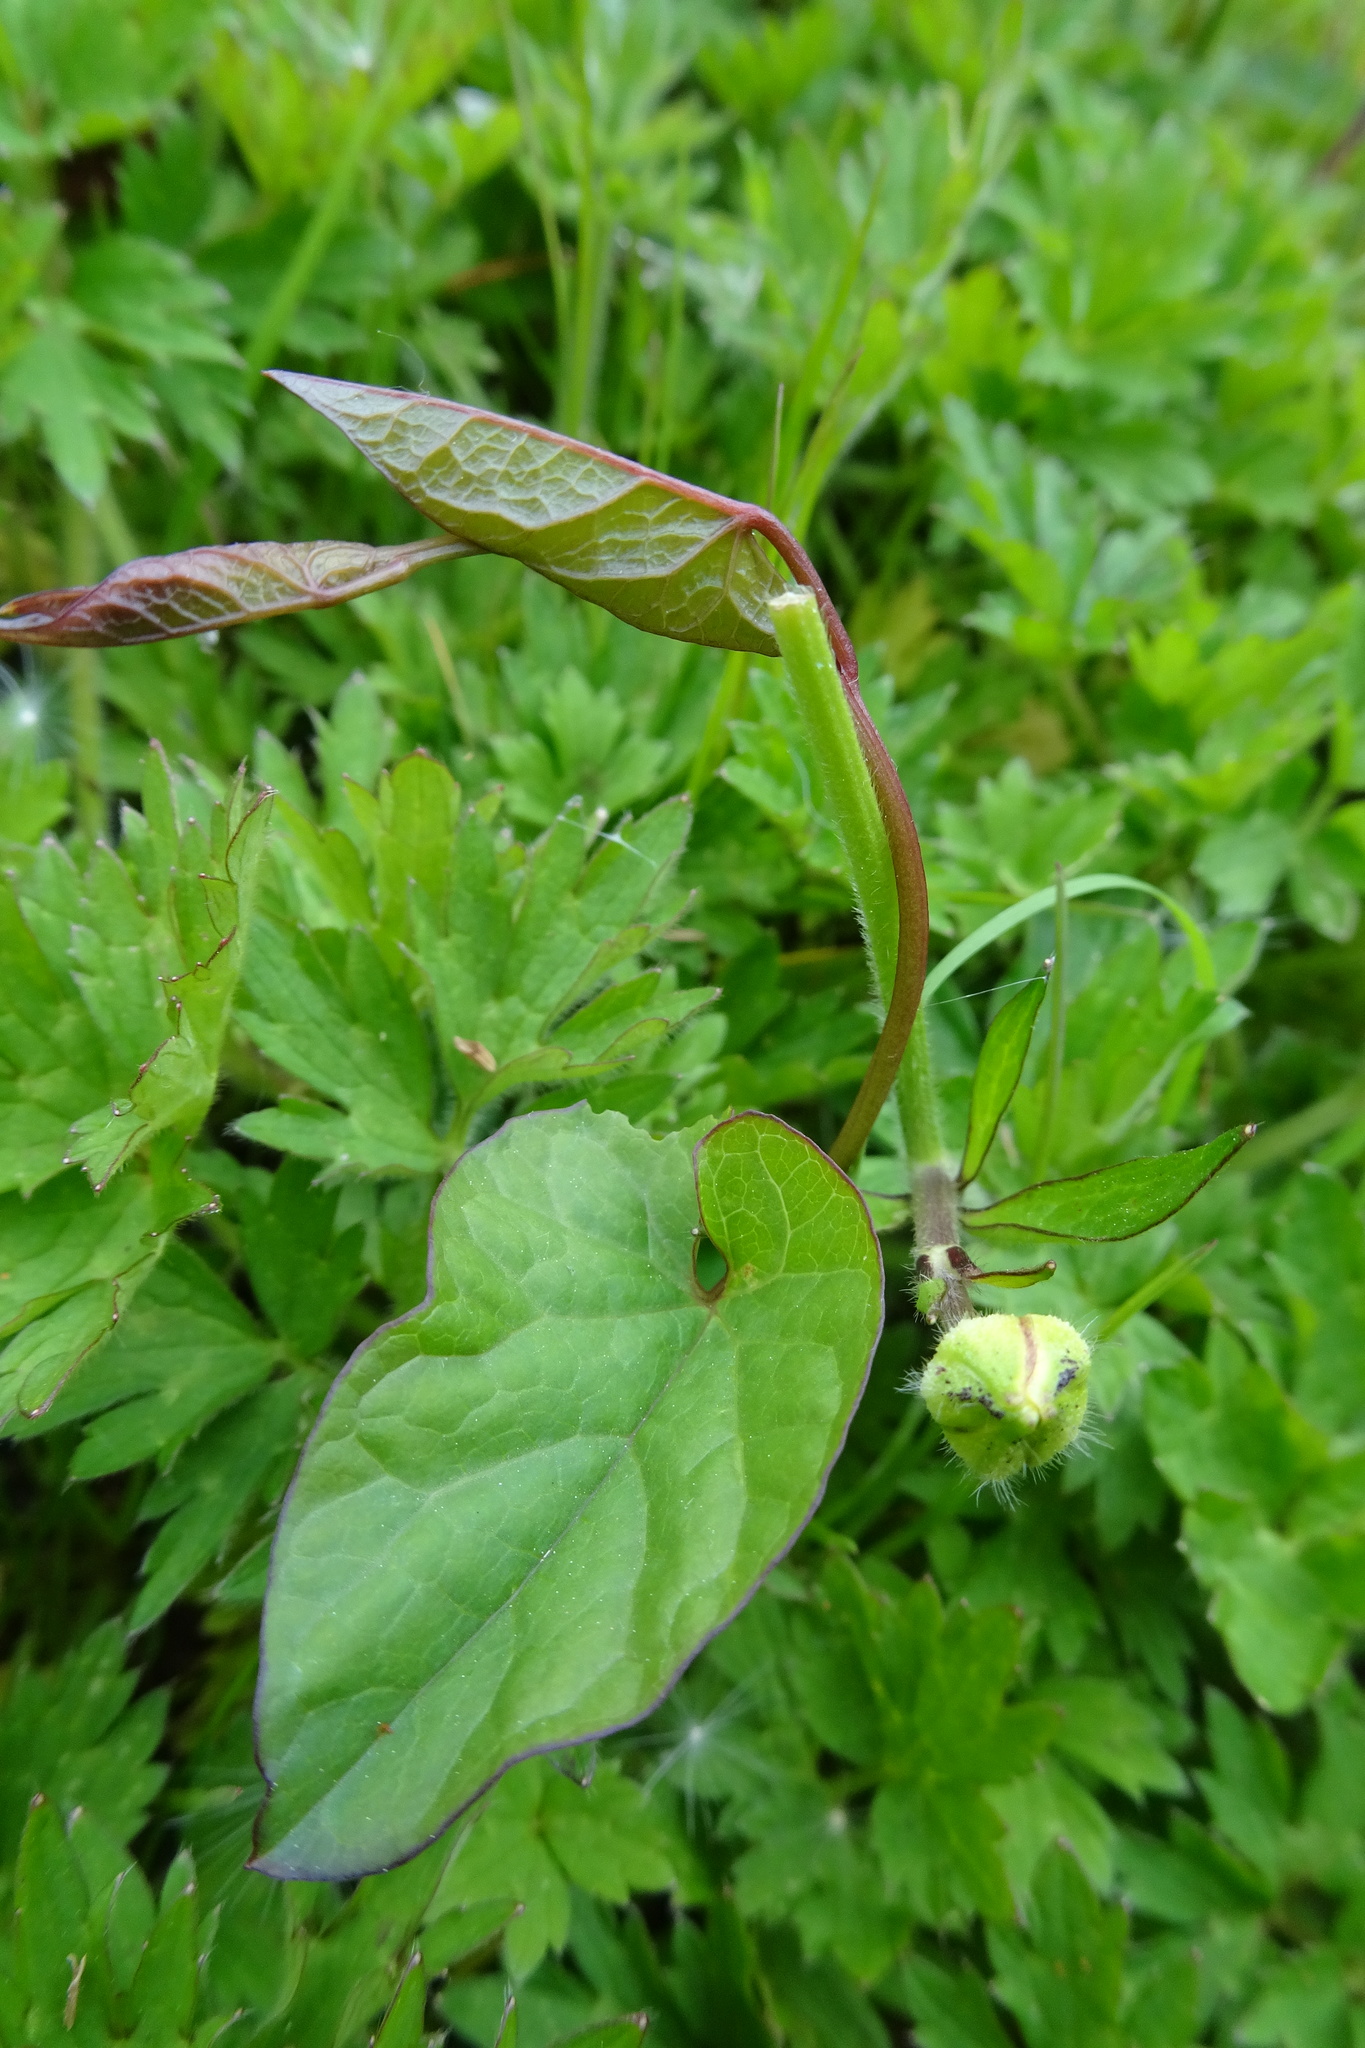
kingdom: Plantae
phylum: Tracheophyta
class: Magnoliopsida
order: Solanales
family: Convolvulaceae
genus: Calystegia
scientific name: Calystegia
